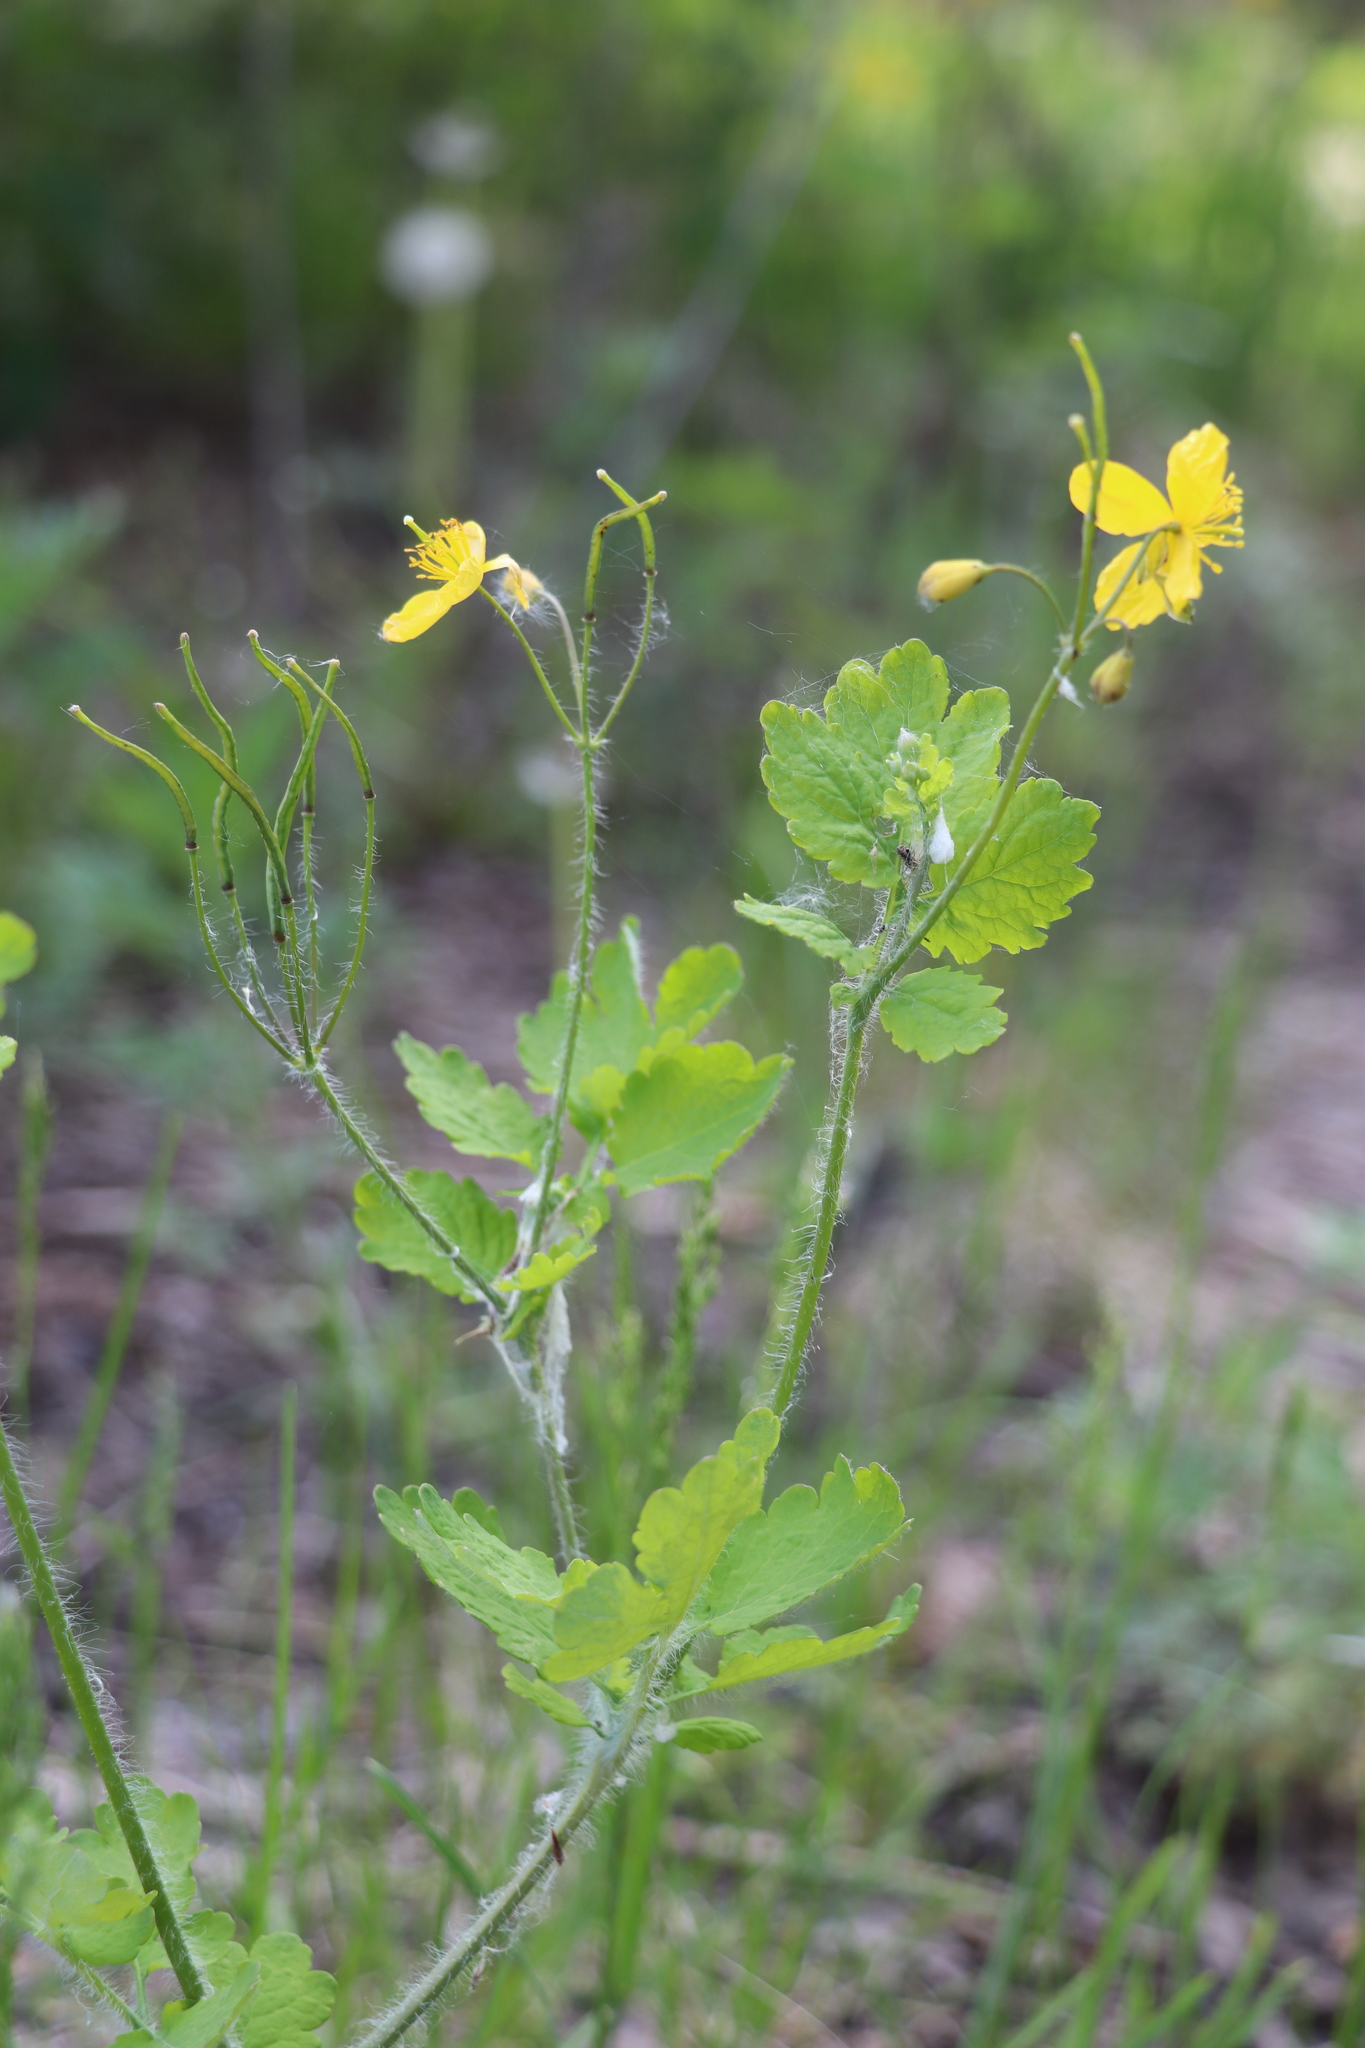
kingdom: Plantae
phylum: Tracheophyta
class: Magnoliopsida
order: Ranunculales
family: Papaveraceae
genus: Chelidonium
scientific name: Chelidonium majus
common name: Greater celandine
